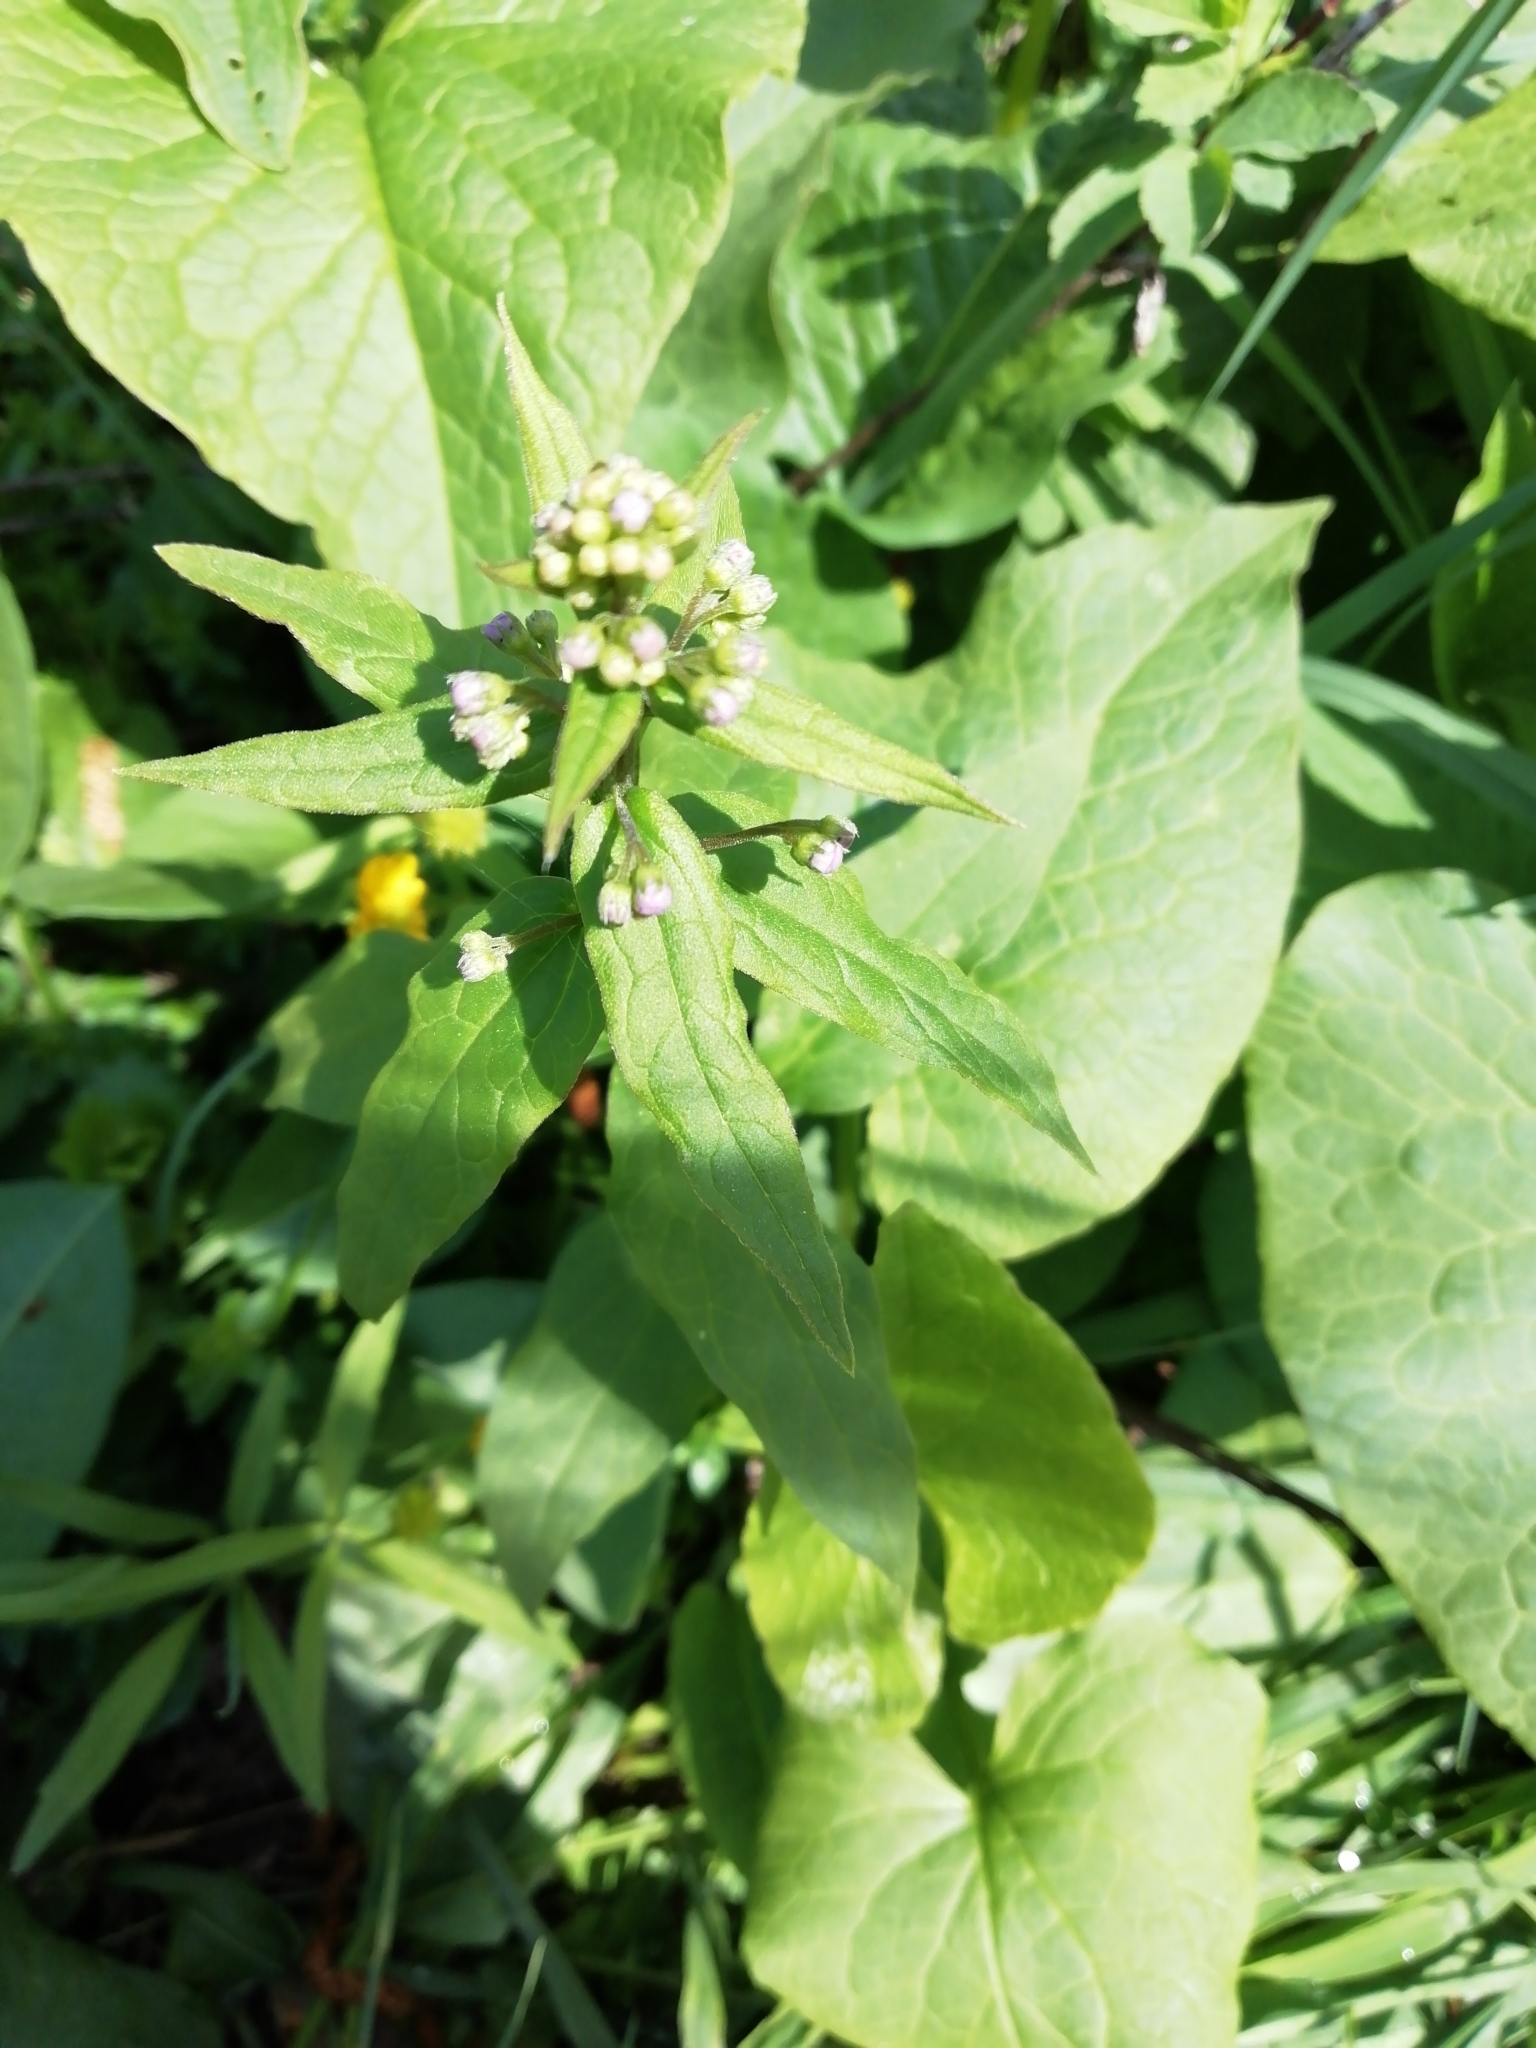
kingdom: Plantae
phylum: Tracheophyta
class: Magnoliopsida
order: Boraginales
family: Boraginaceae
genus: Brunnera
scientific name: Brunnera sibirica
